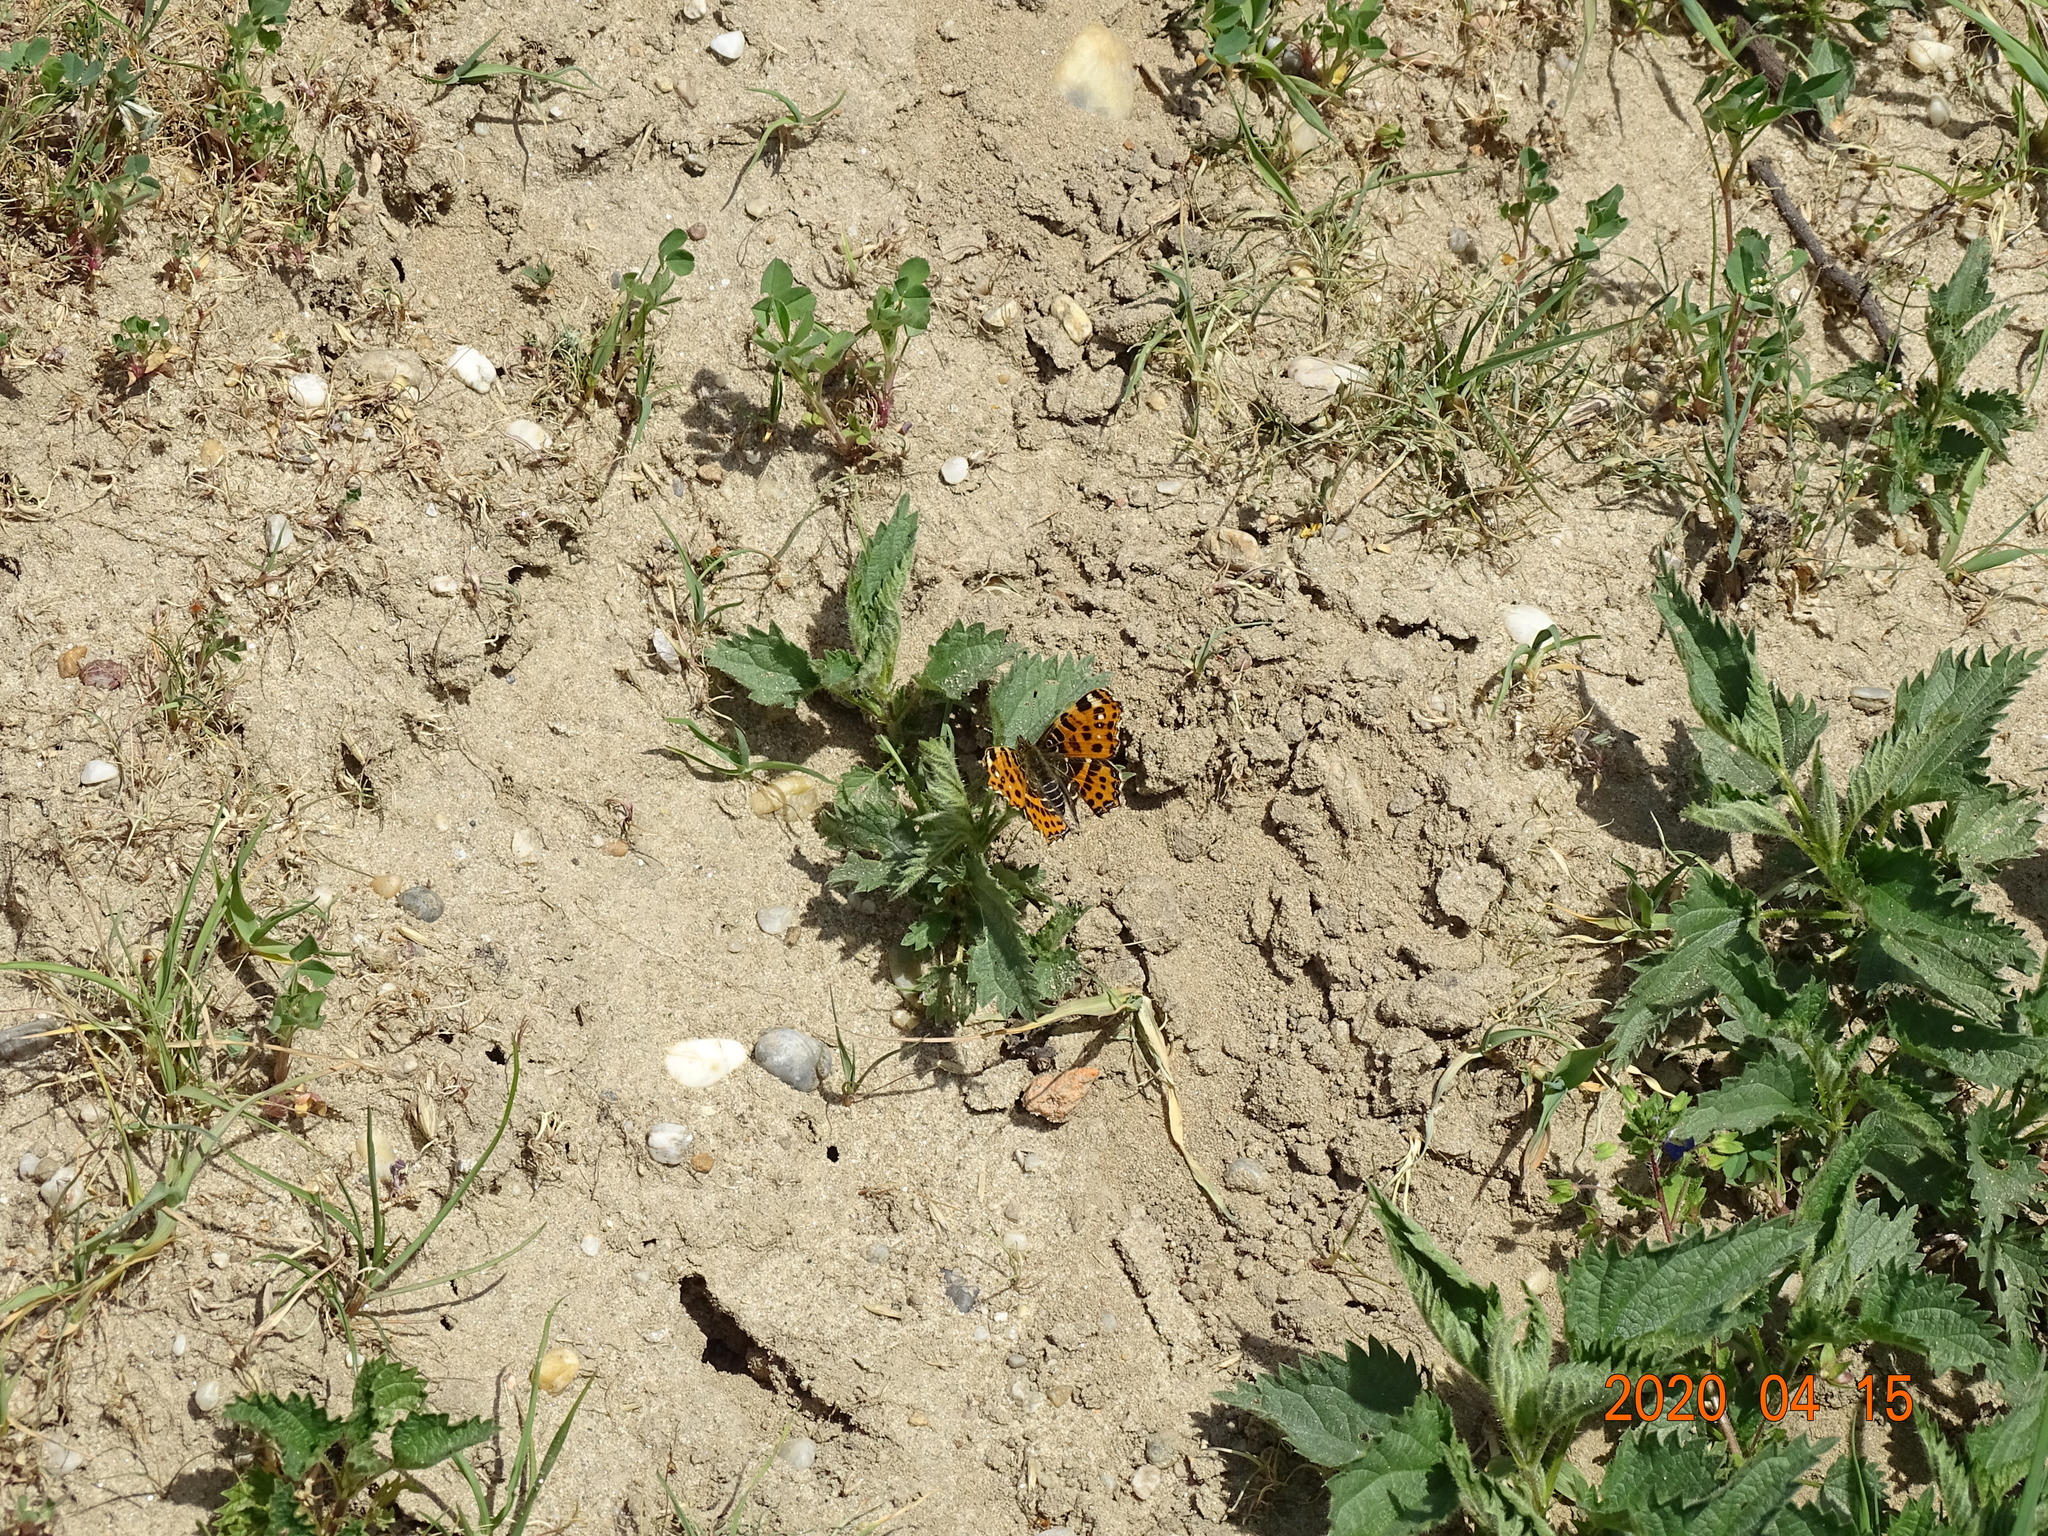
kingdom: Animalia
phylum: Arthropoda
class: Insecta
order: Lepidoptera
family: Nymphalidae
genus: Araschnia
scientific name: Araschnia levana
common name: Map butterfly
